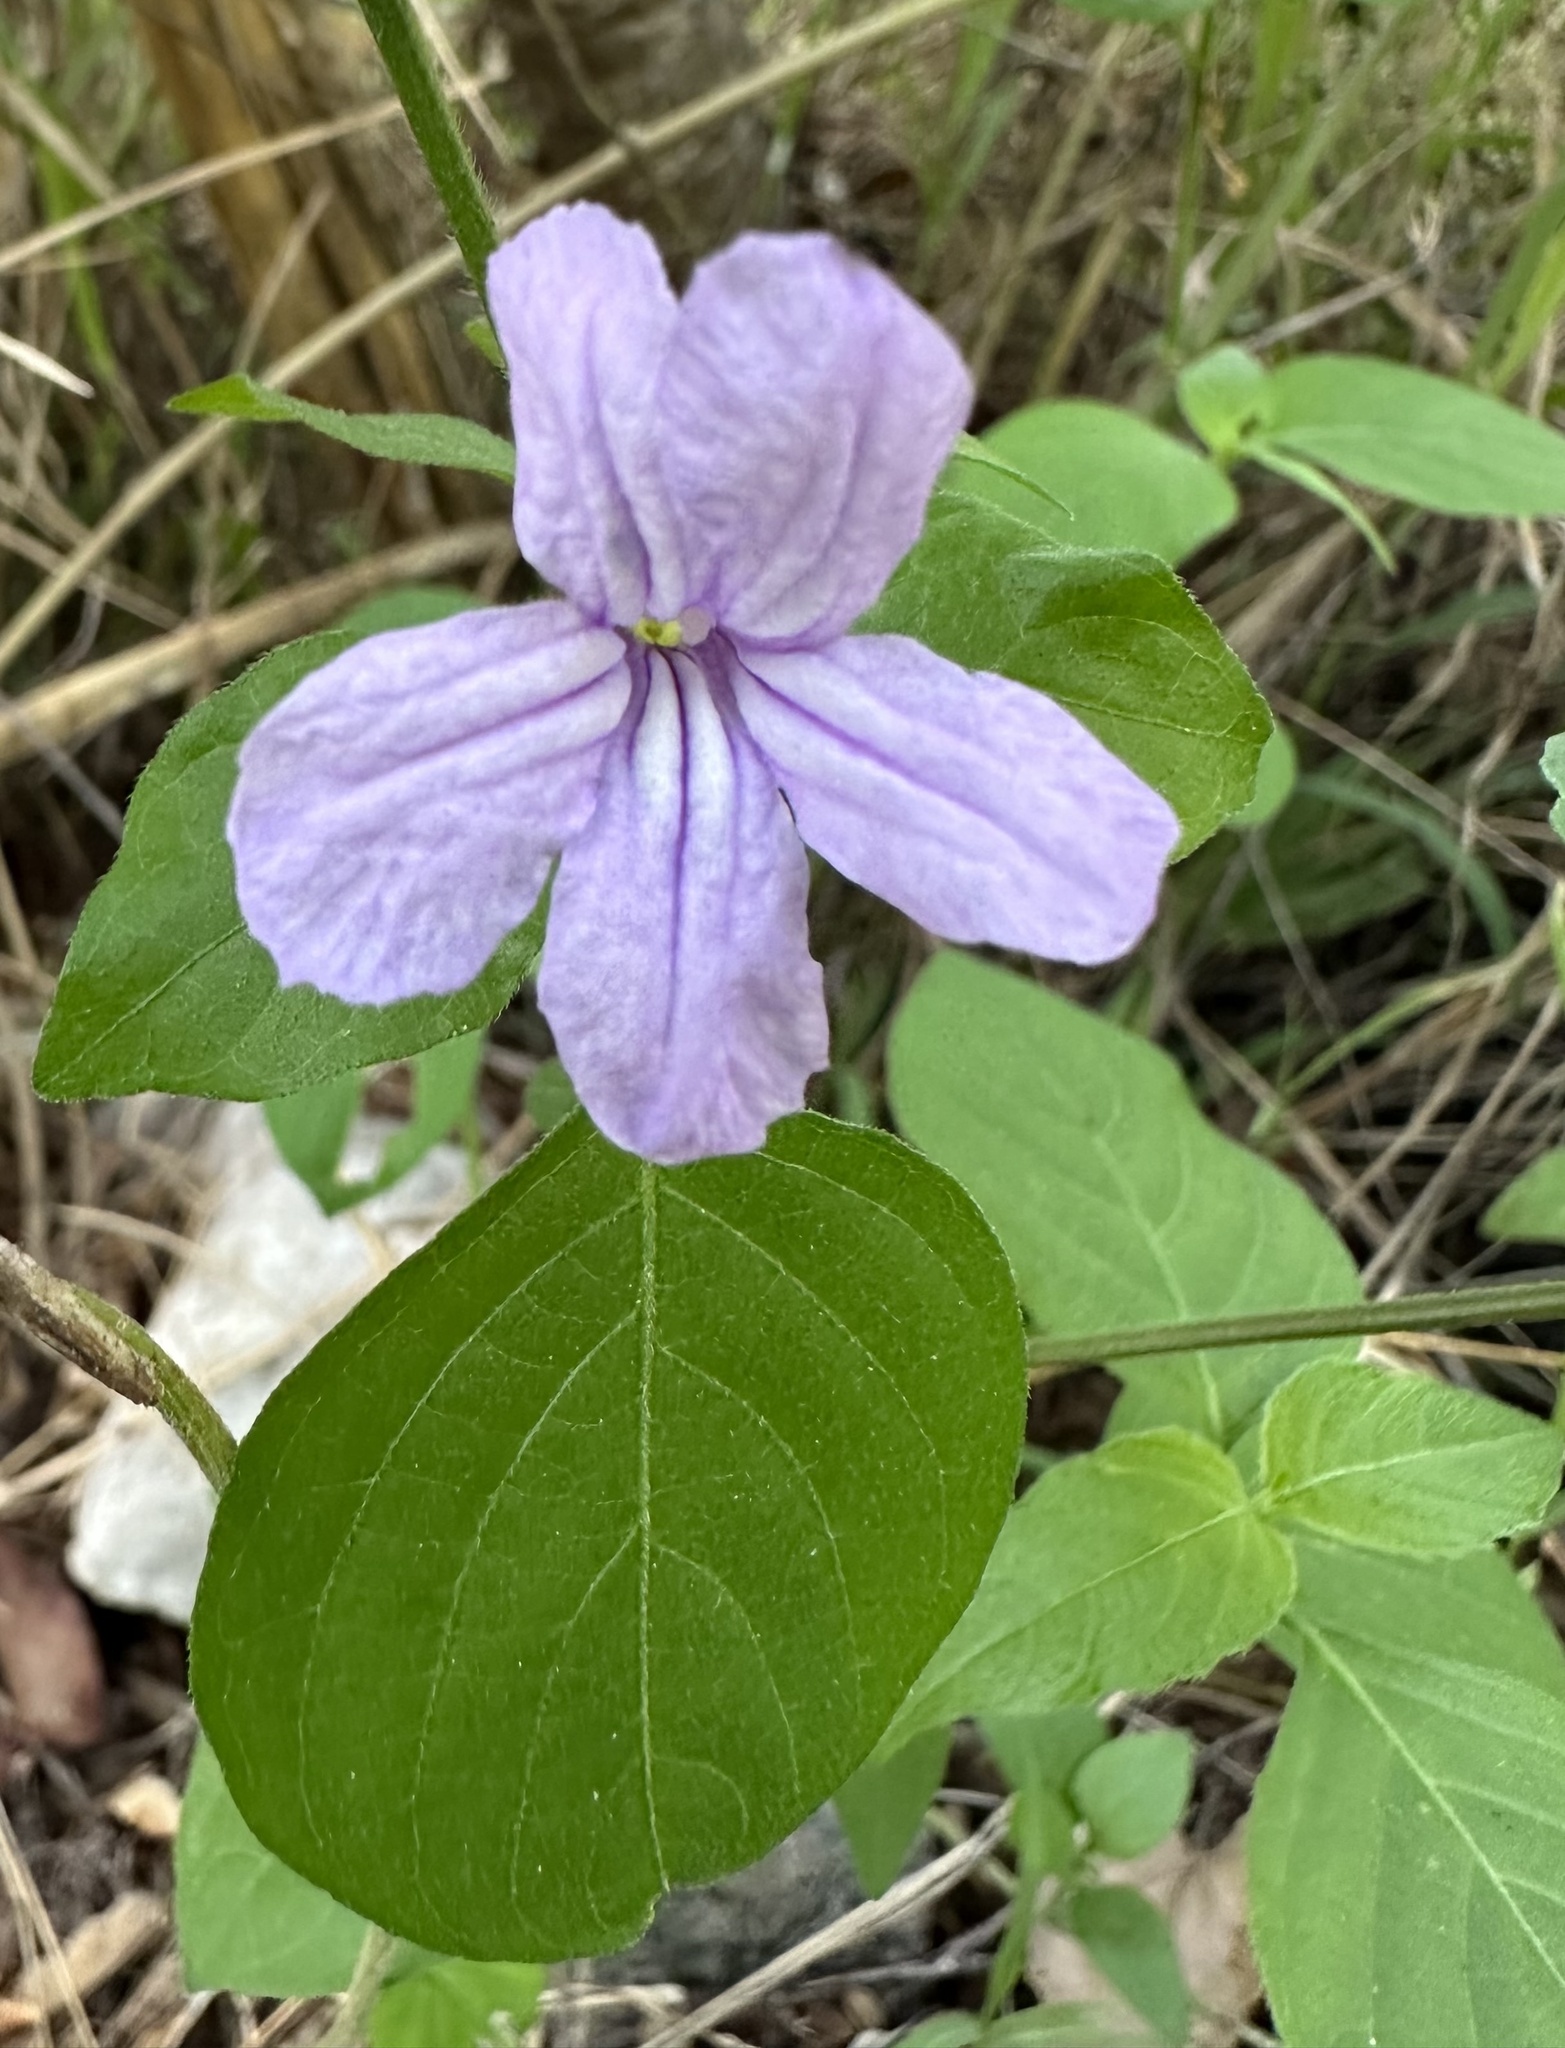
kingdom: Plantae
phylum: Tracheophyta
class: Magnoliopsida
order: Lamiales
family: Acanthaceae
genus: Ruellia
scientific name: Ruellia prostrata
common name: Prostrate wild petunia
